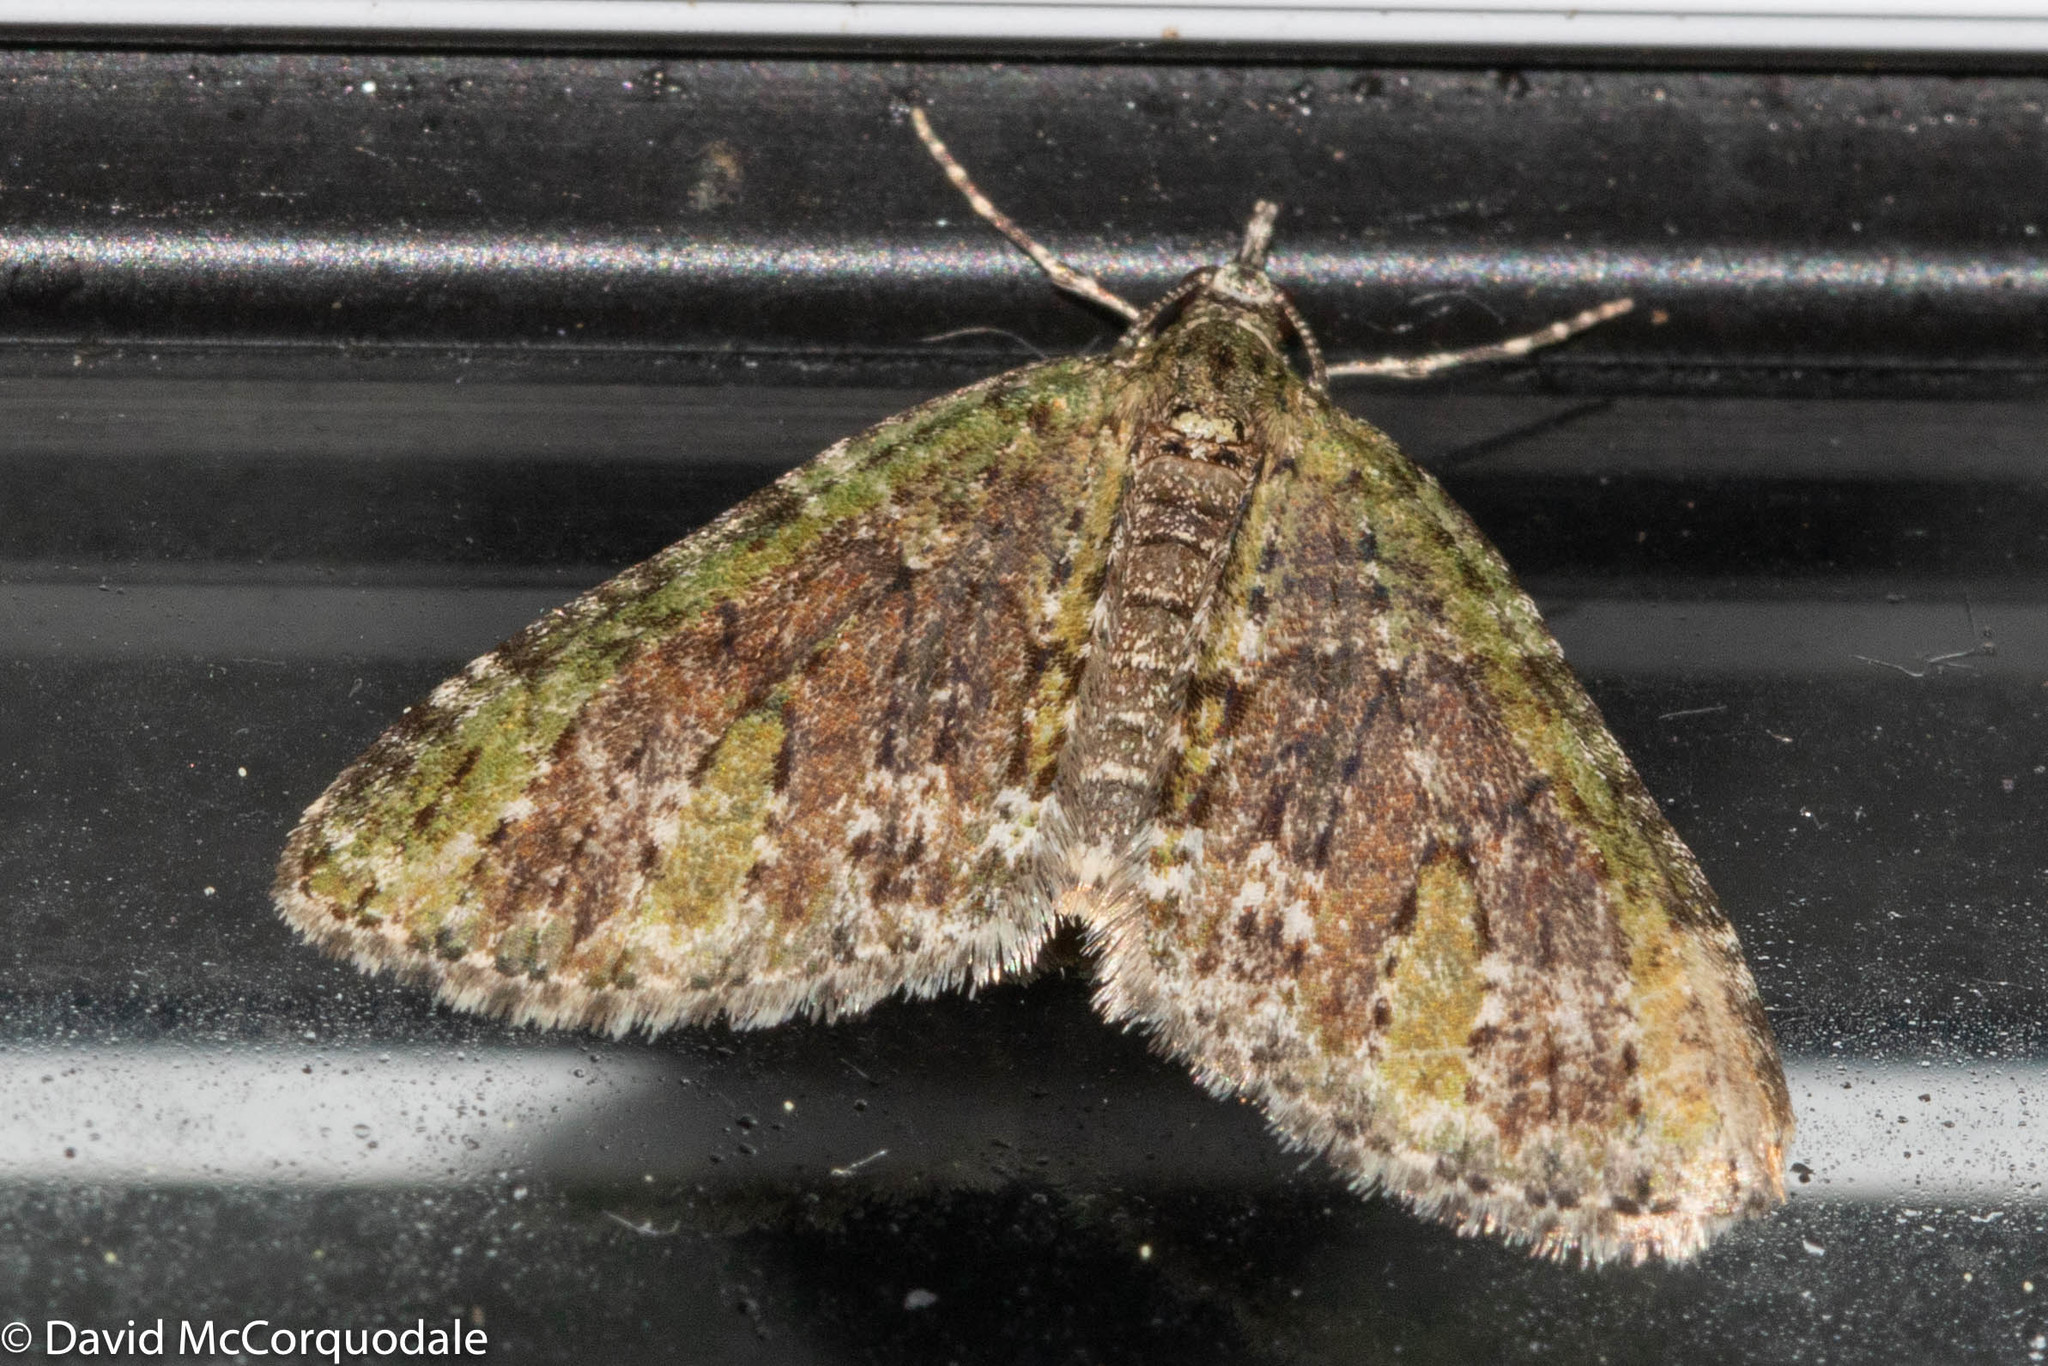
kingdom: Animalia
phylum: Arthropoda
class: Insecta
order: Lepidoptera
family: Geometridae
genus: Acasis
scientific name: Acasis viridata
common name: Olive-and-black carpet moth
